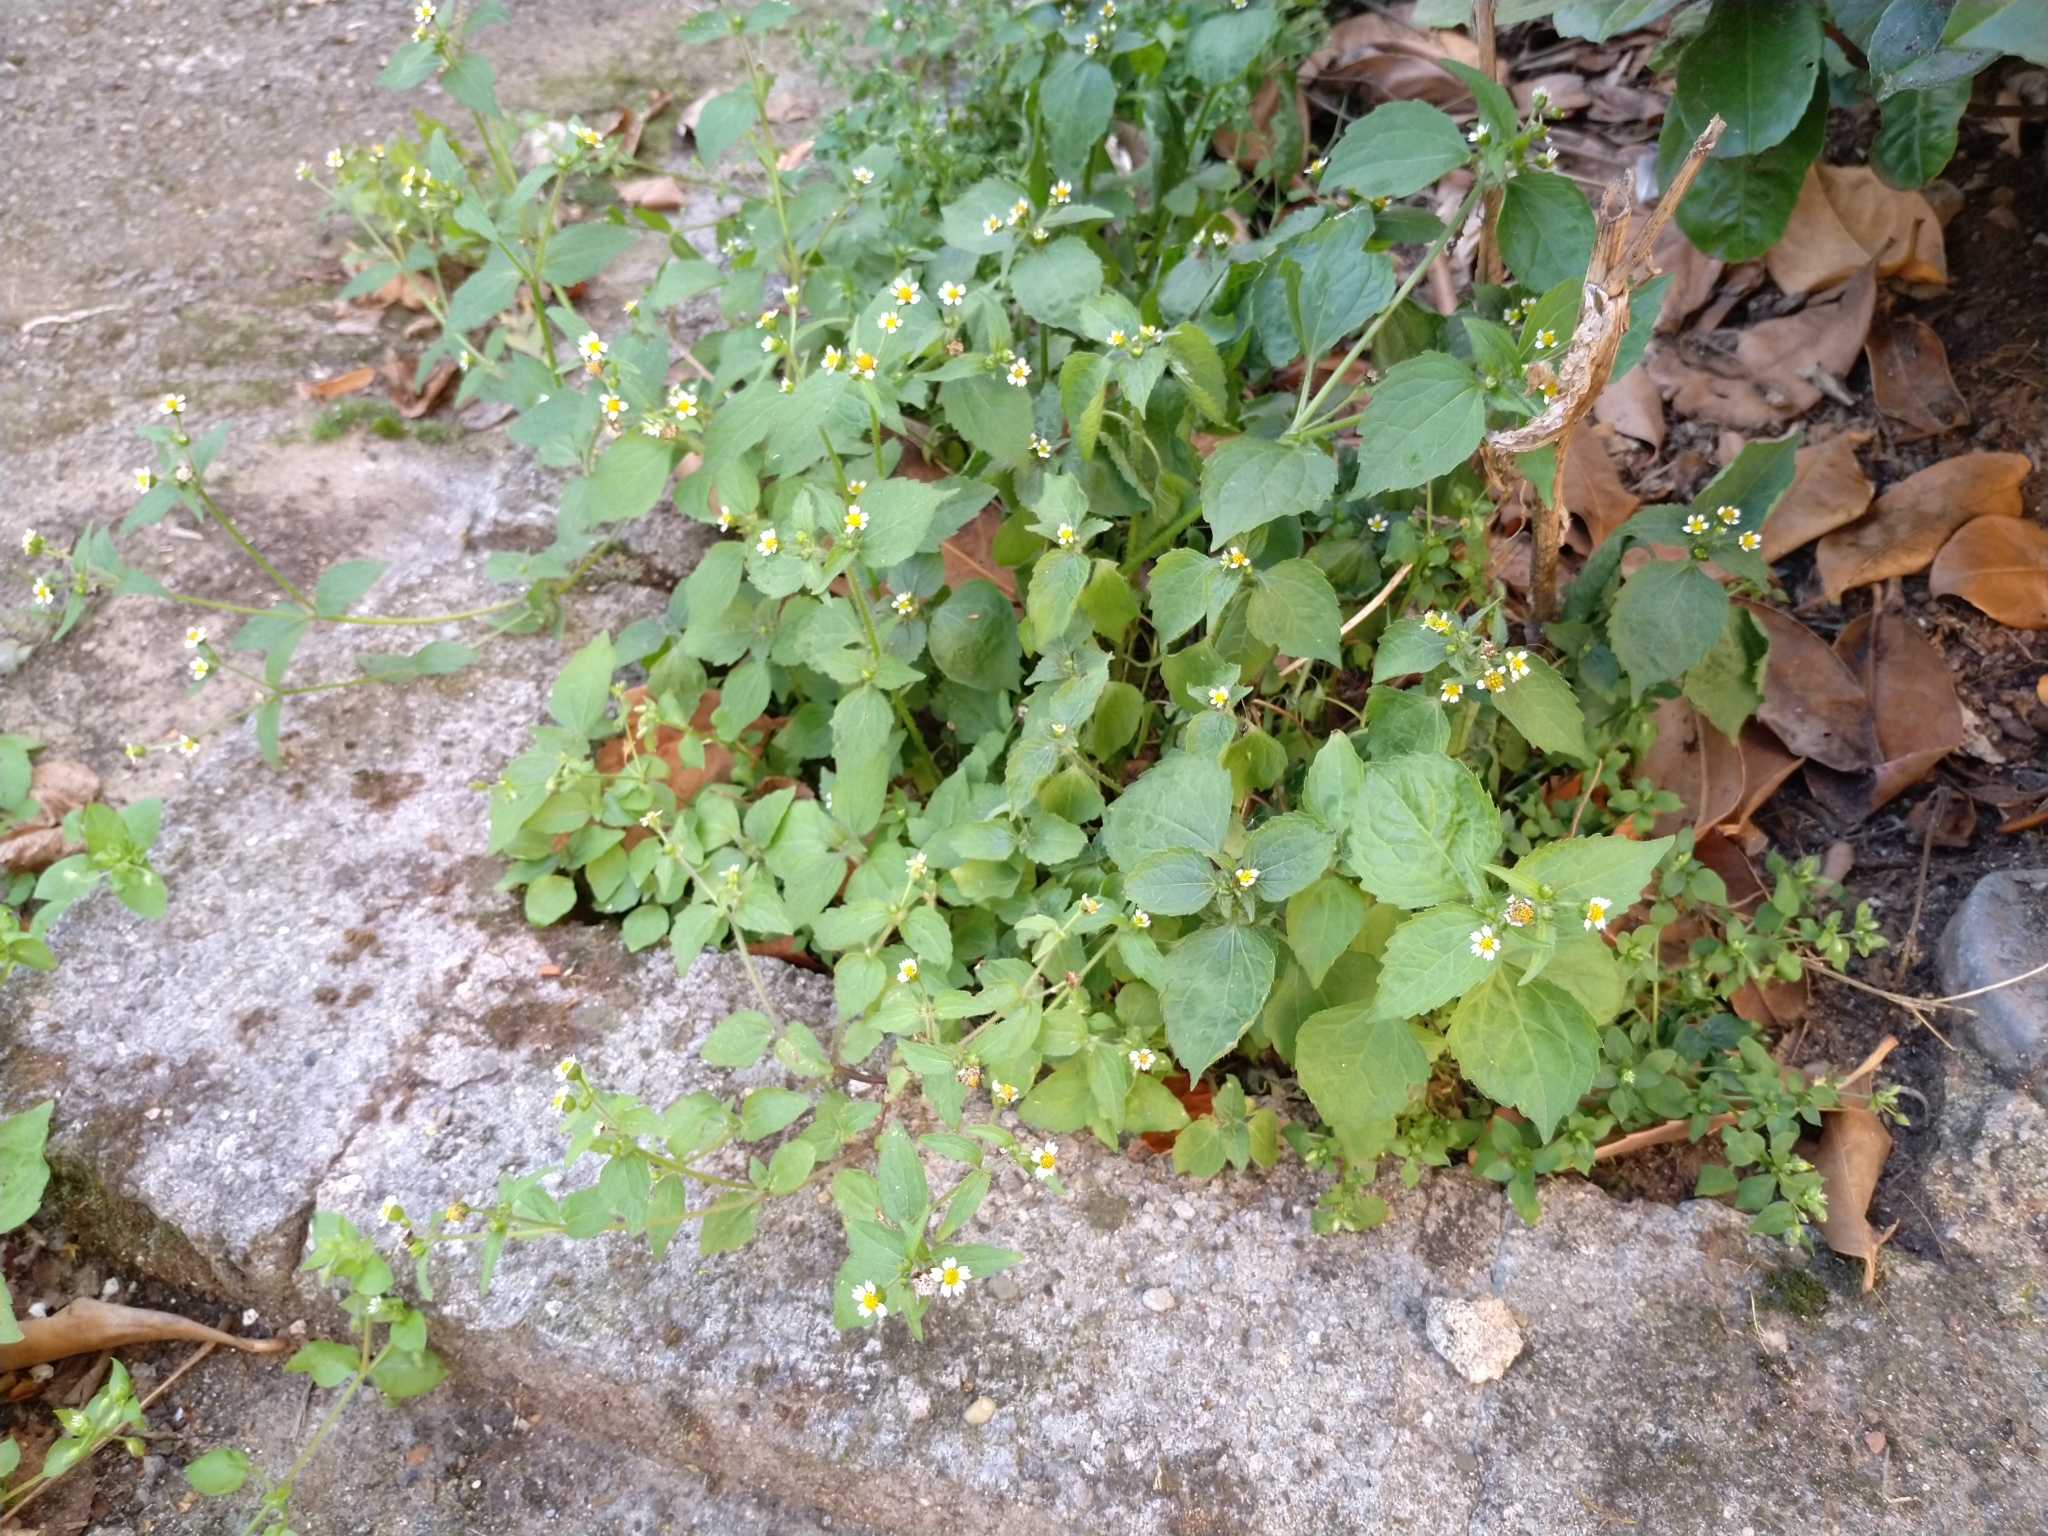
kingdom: Plantae
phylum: Tracheophyta
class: Magnoliopsida
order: Asterales
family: Asteraceae
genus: Galinsoga
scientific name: Galinsoga quadriradiata
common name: Shaggy soldier
